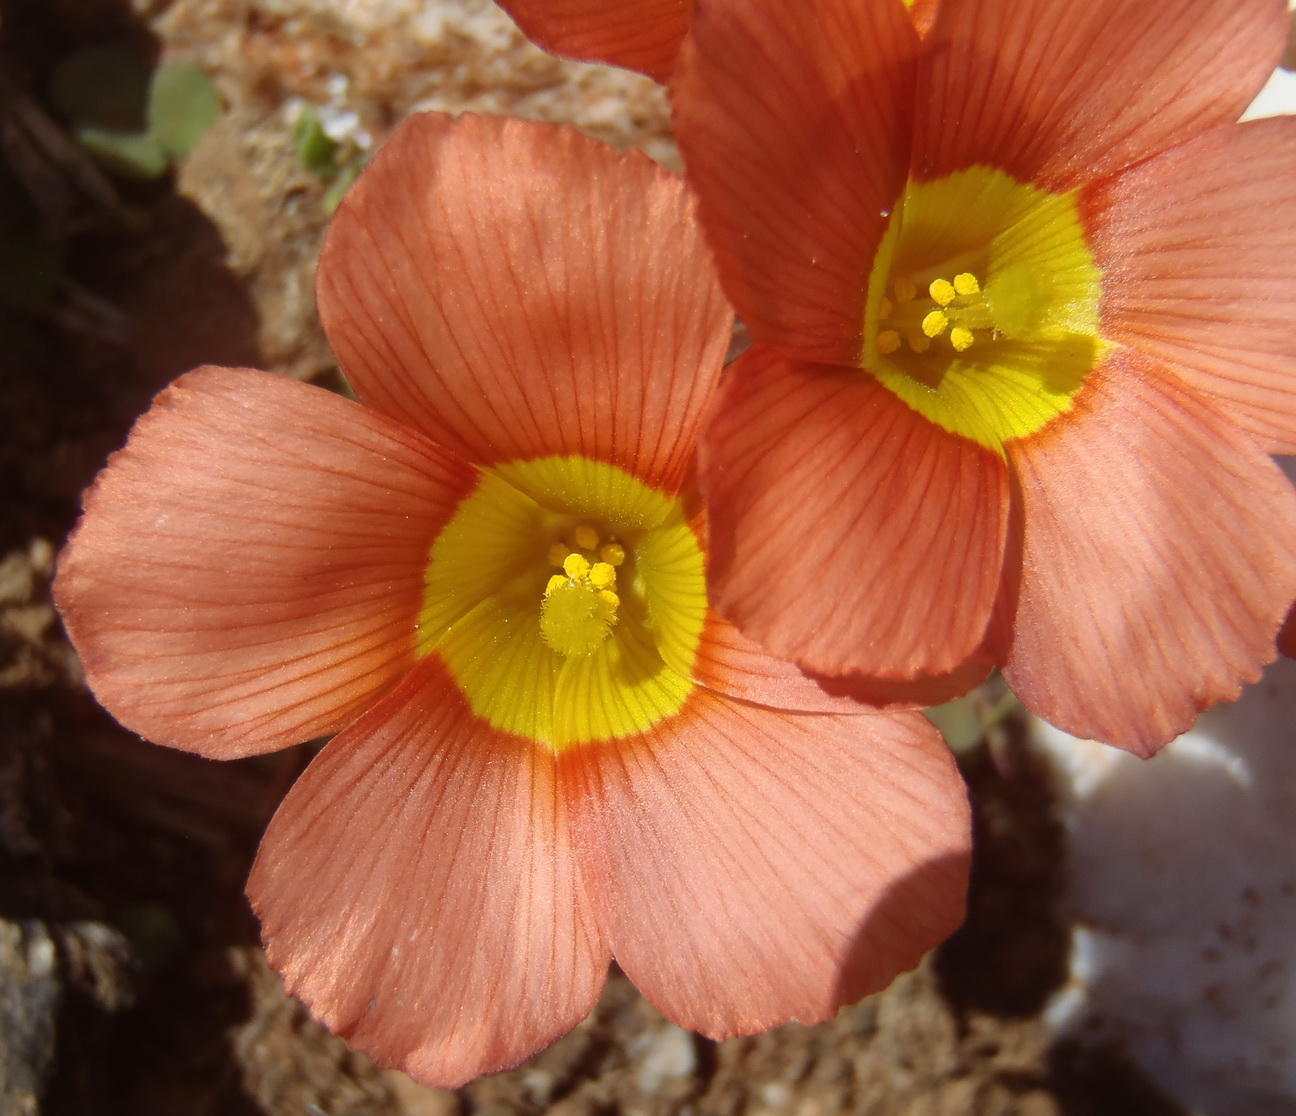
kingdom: Plantae
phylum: Tracheophyta
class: Magnoliopsida
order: Oxalidales
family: Oxalidaceae
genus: Oxalis
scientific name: Oxalis fergusoniae
